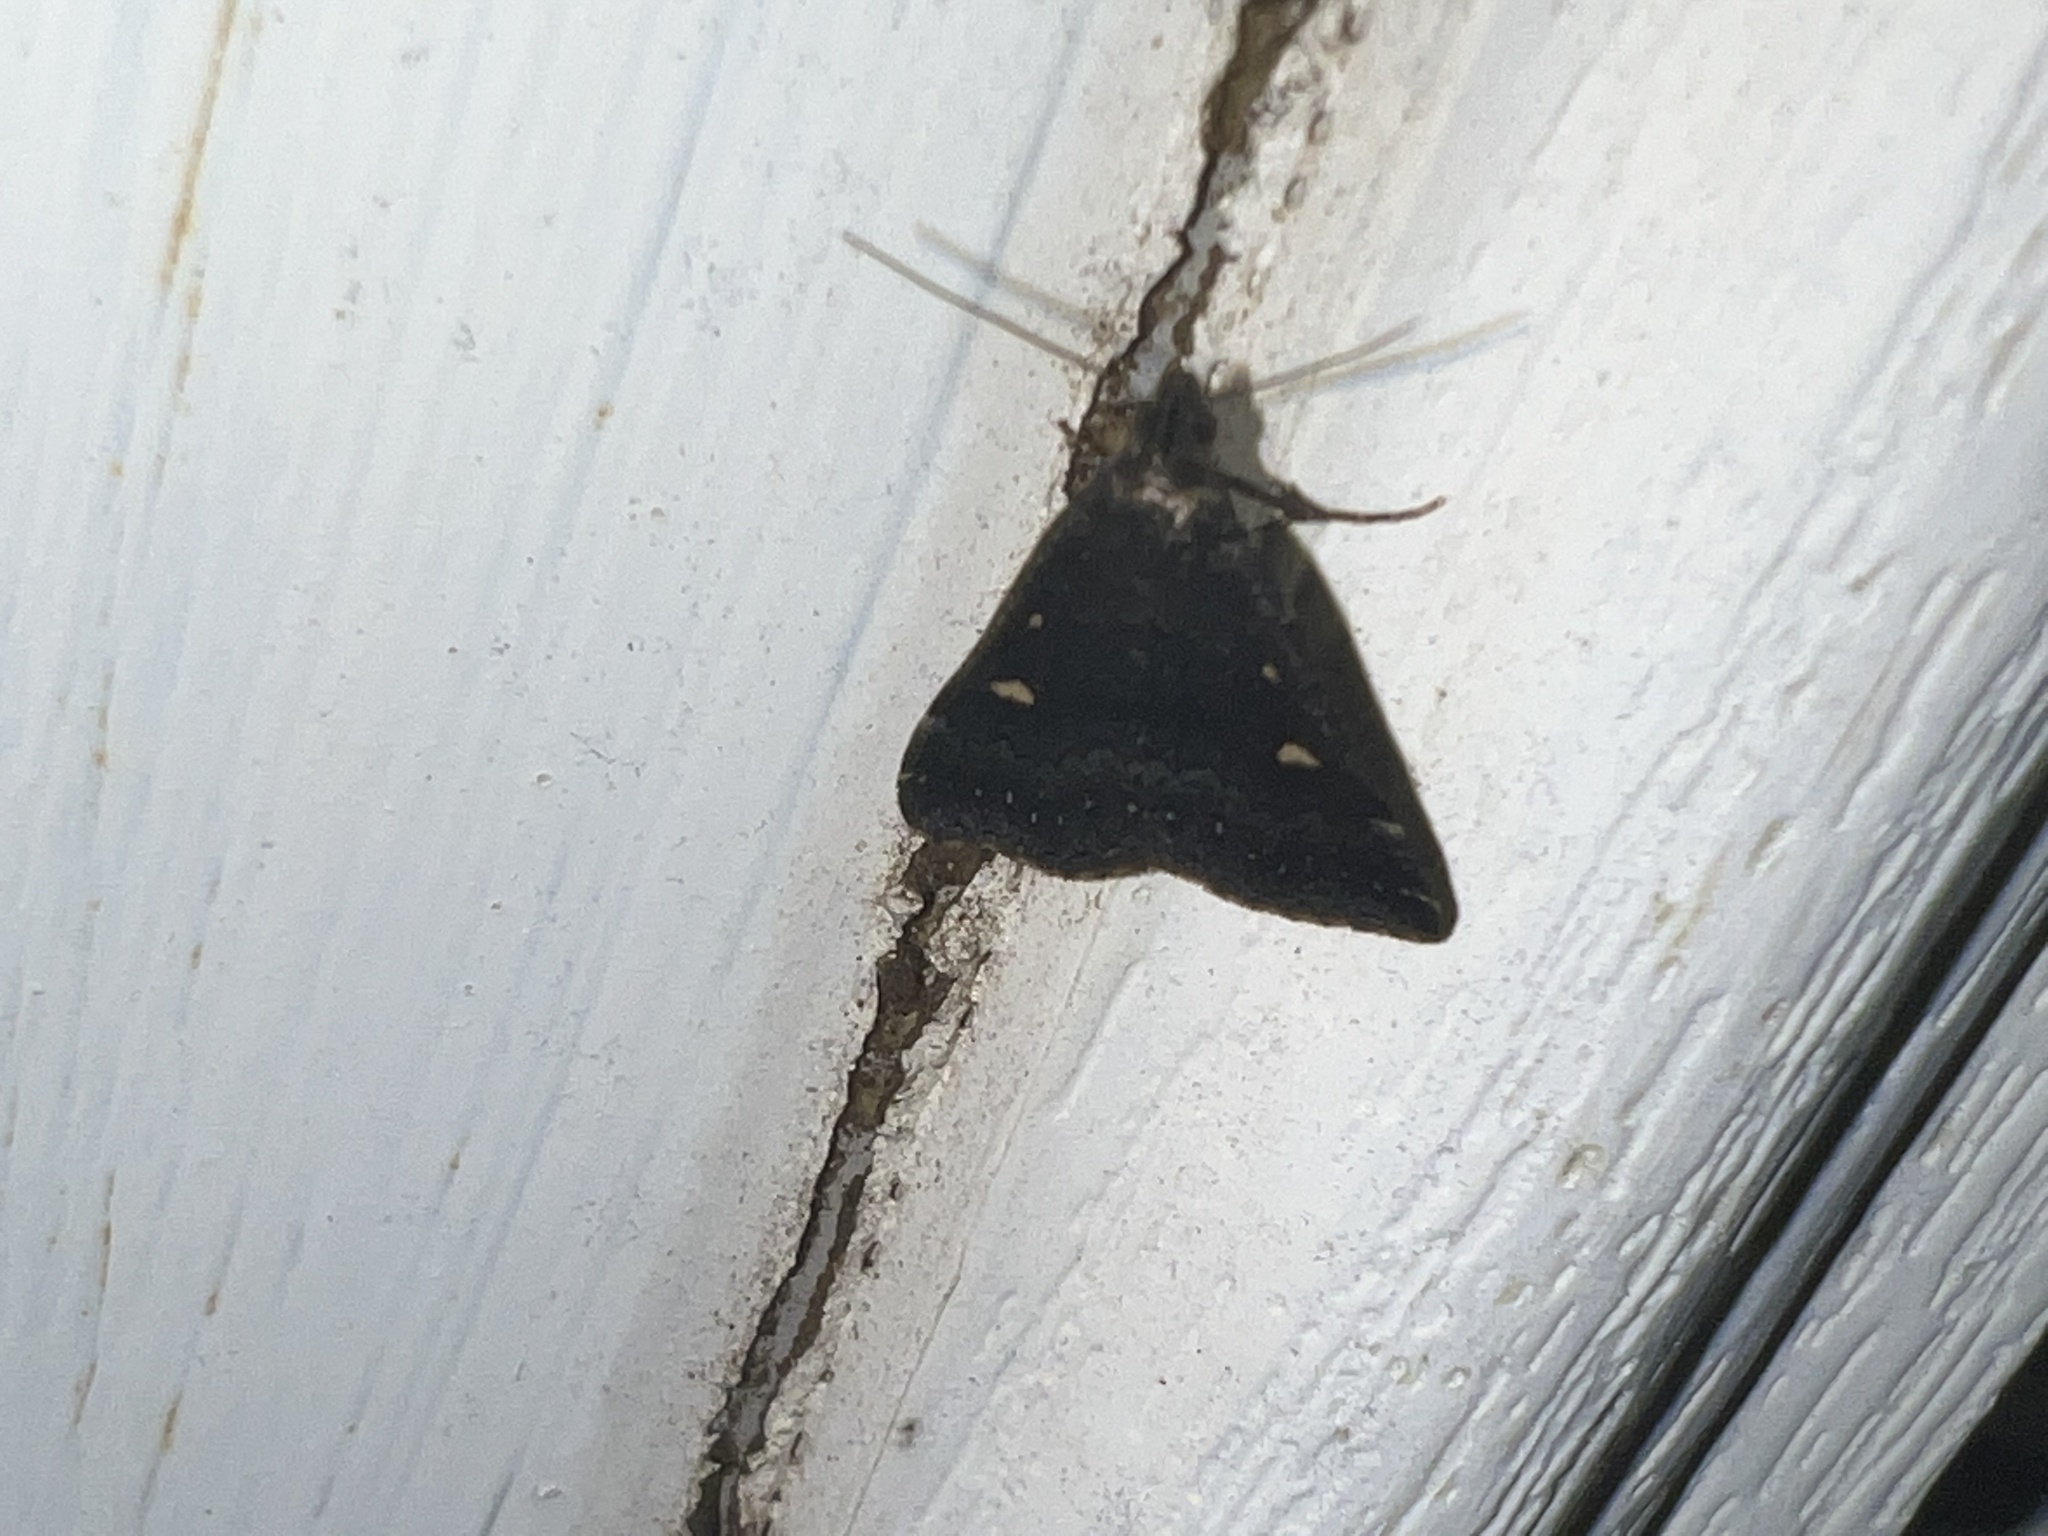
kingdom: Animalia
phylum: Arthropoda
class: Insecta
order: Lepidoptera
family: Erebidae
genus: Tetanolita
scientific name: Tetanolita mynesalis
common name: Smoky tetanolita moth
